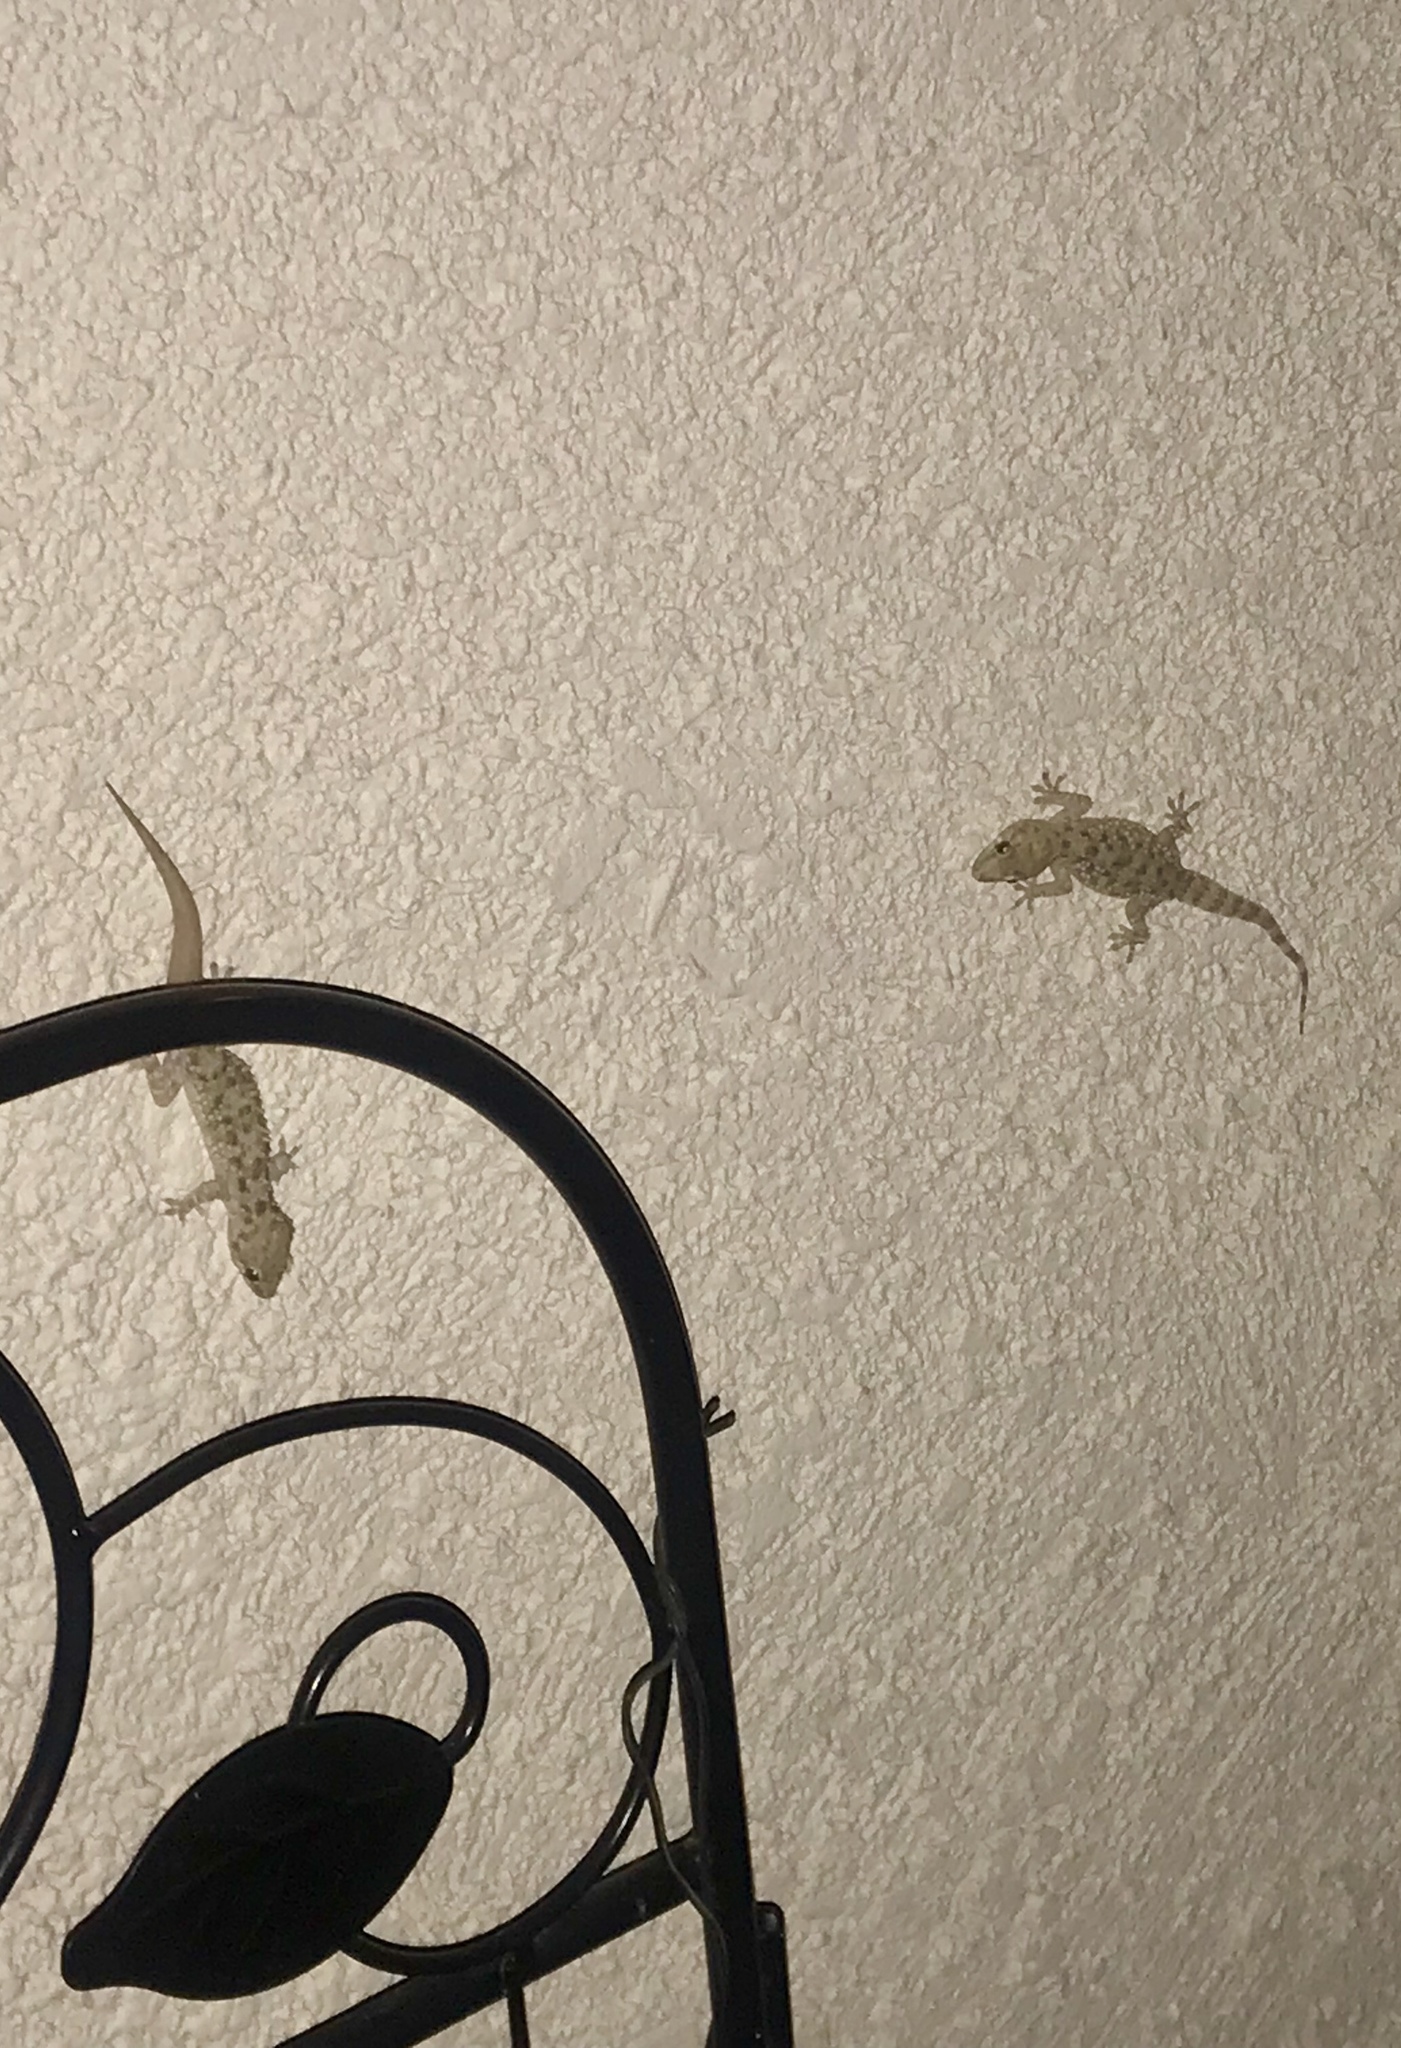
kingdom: Animalia
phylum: Chordata
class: Squamata
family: Gekkonidae
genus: Hemidactylus
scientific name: Hemidactylus turcicus
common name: Turkish gecko
